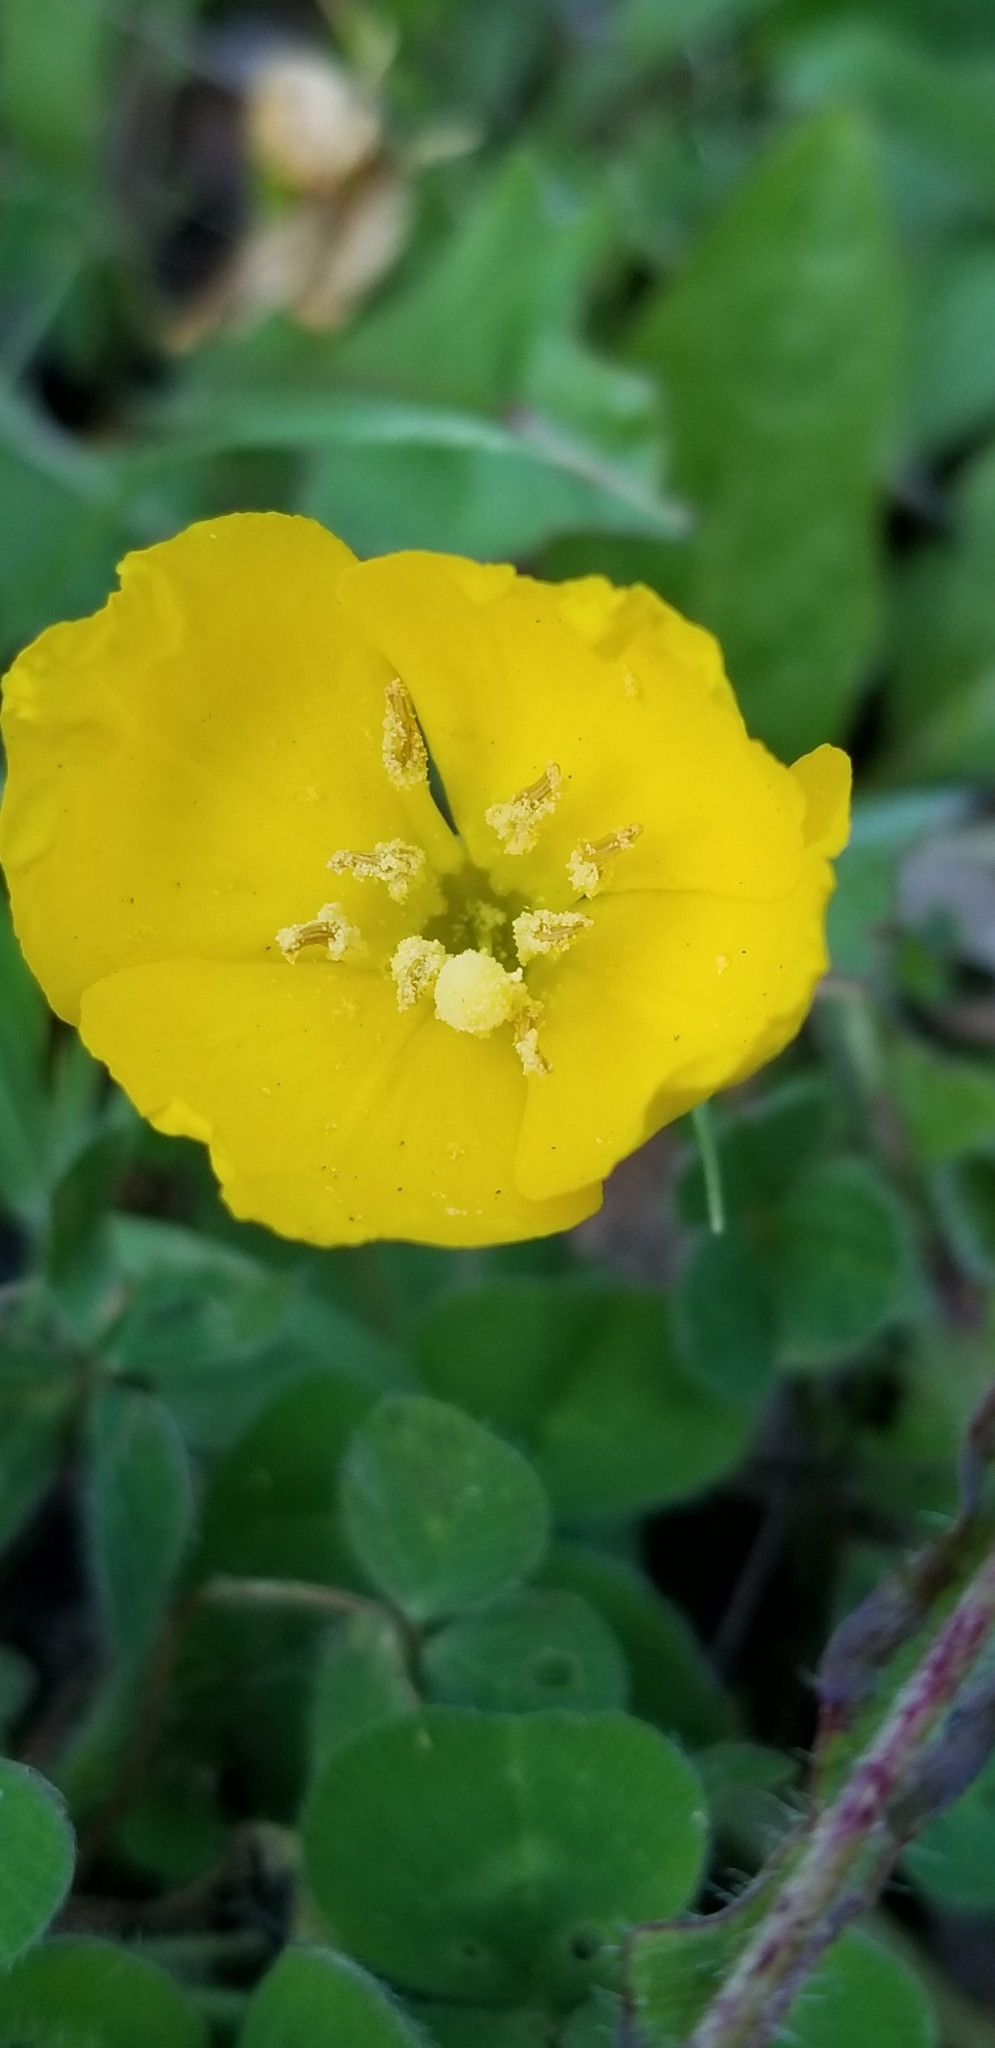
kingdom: Plantae
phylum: Tracheophyta
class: Magnoliopsida
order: Myrtales
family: Onagraceae
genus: Taraxia
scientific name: Taraxia ovata
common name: Goldeneggs
